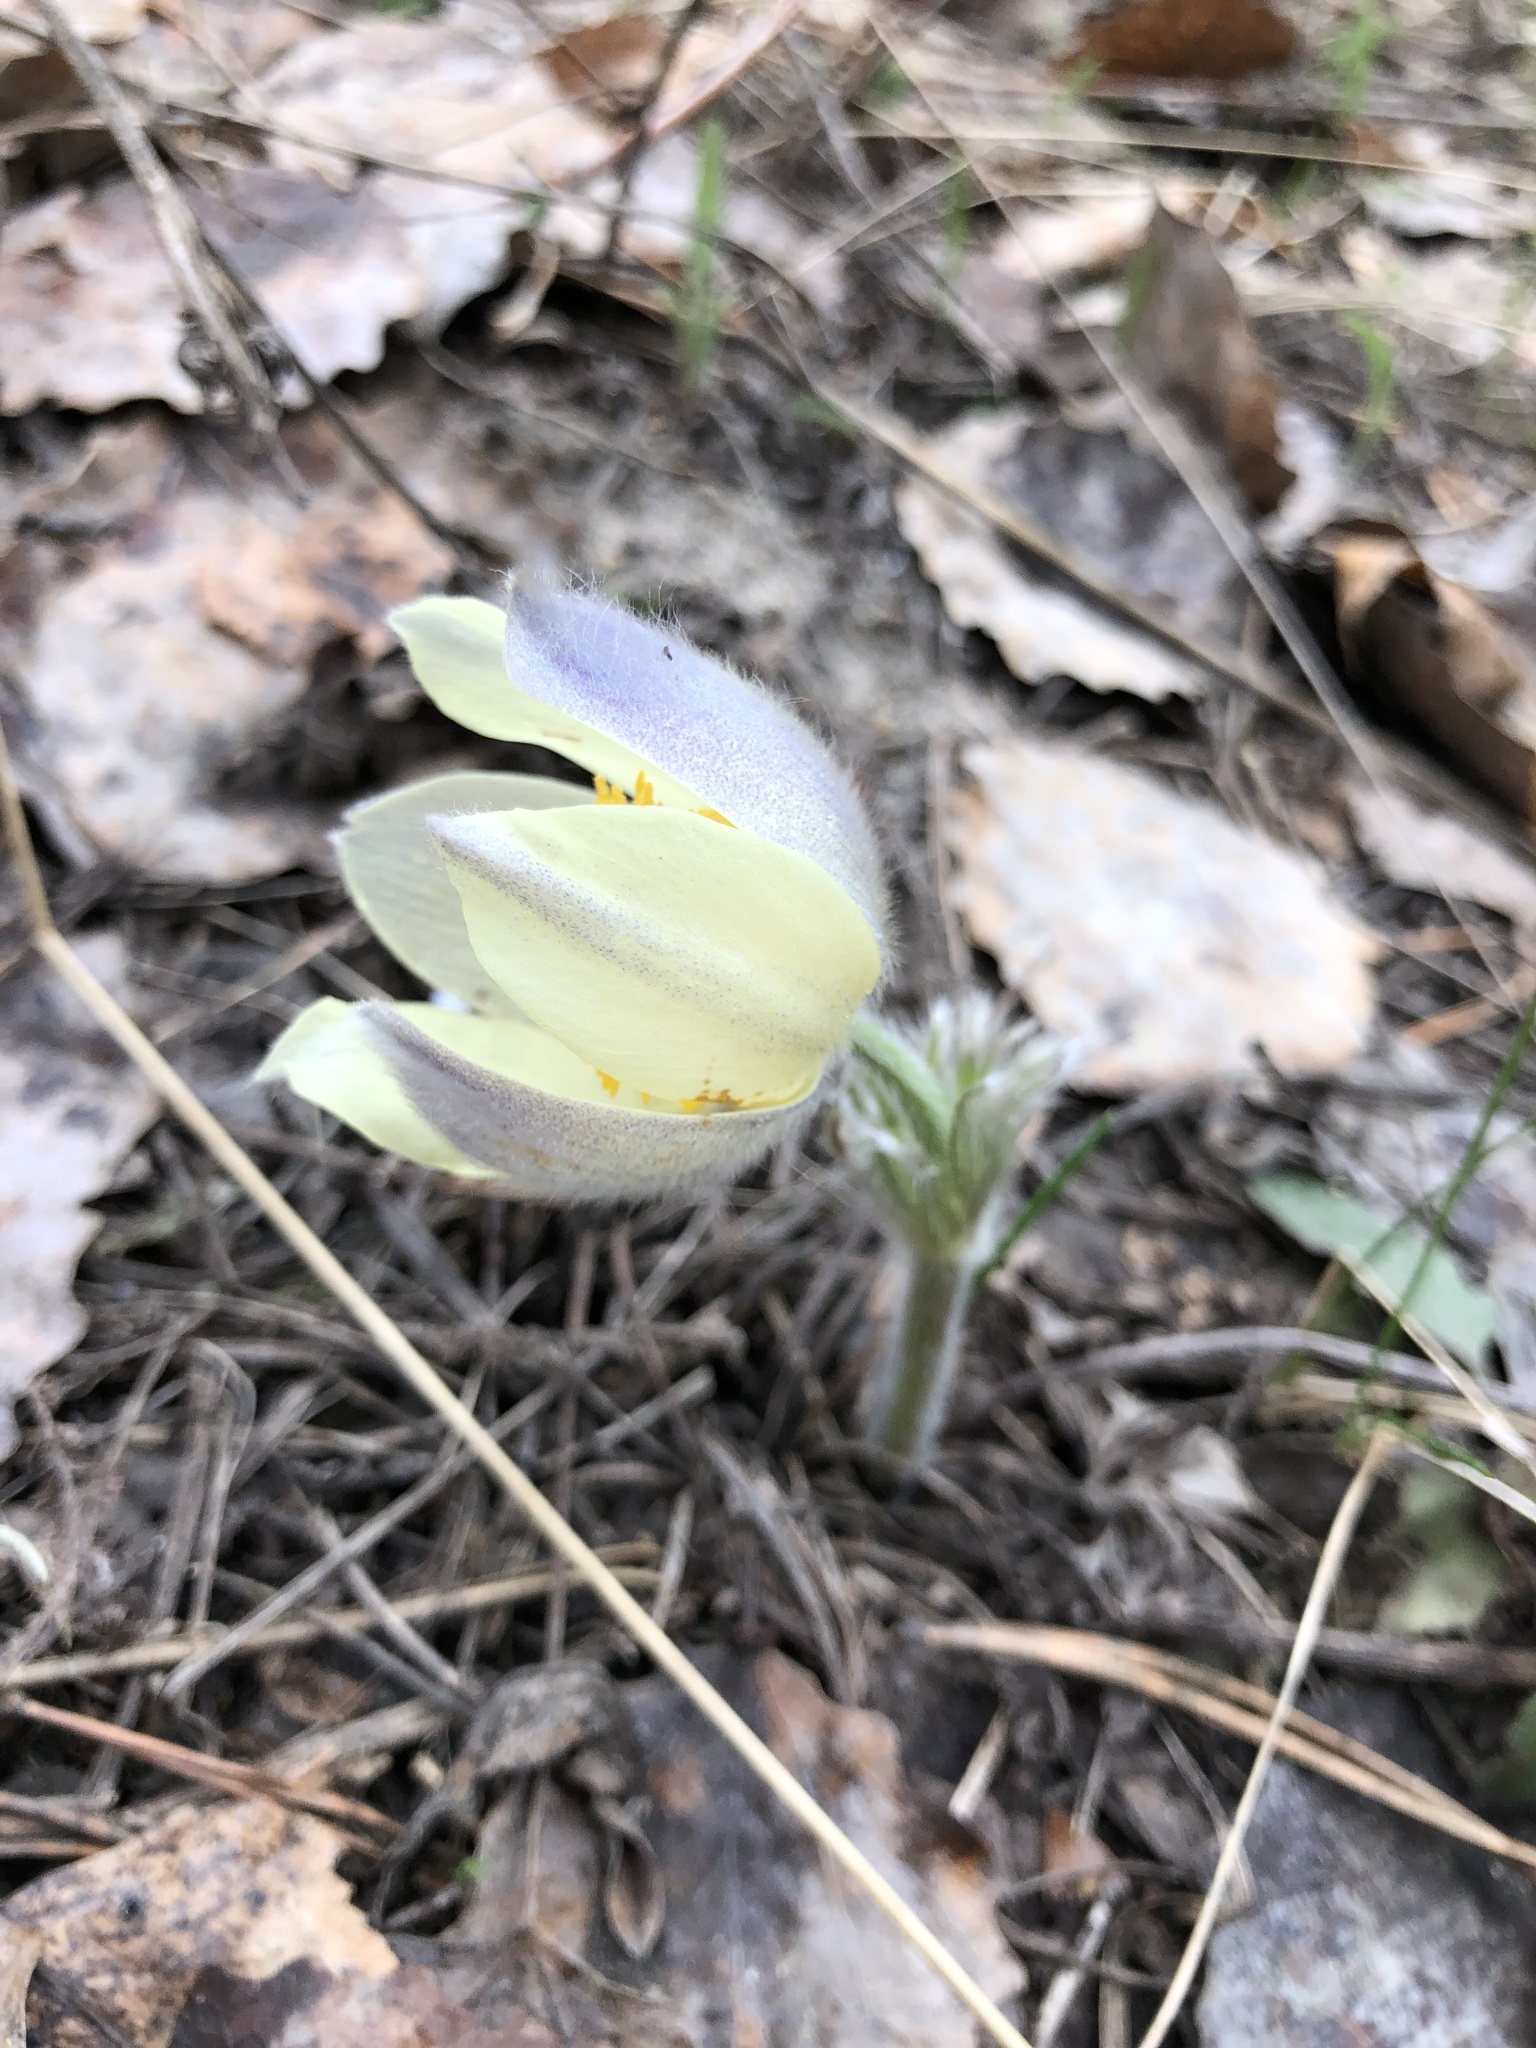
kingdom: Plantae
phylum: Tracheophyta
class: Magnoliopsida
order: Ranunculales
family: Ranunculaceae
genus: Pulsatilla
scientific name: Pulsatilla patens
